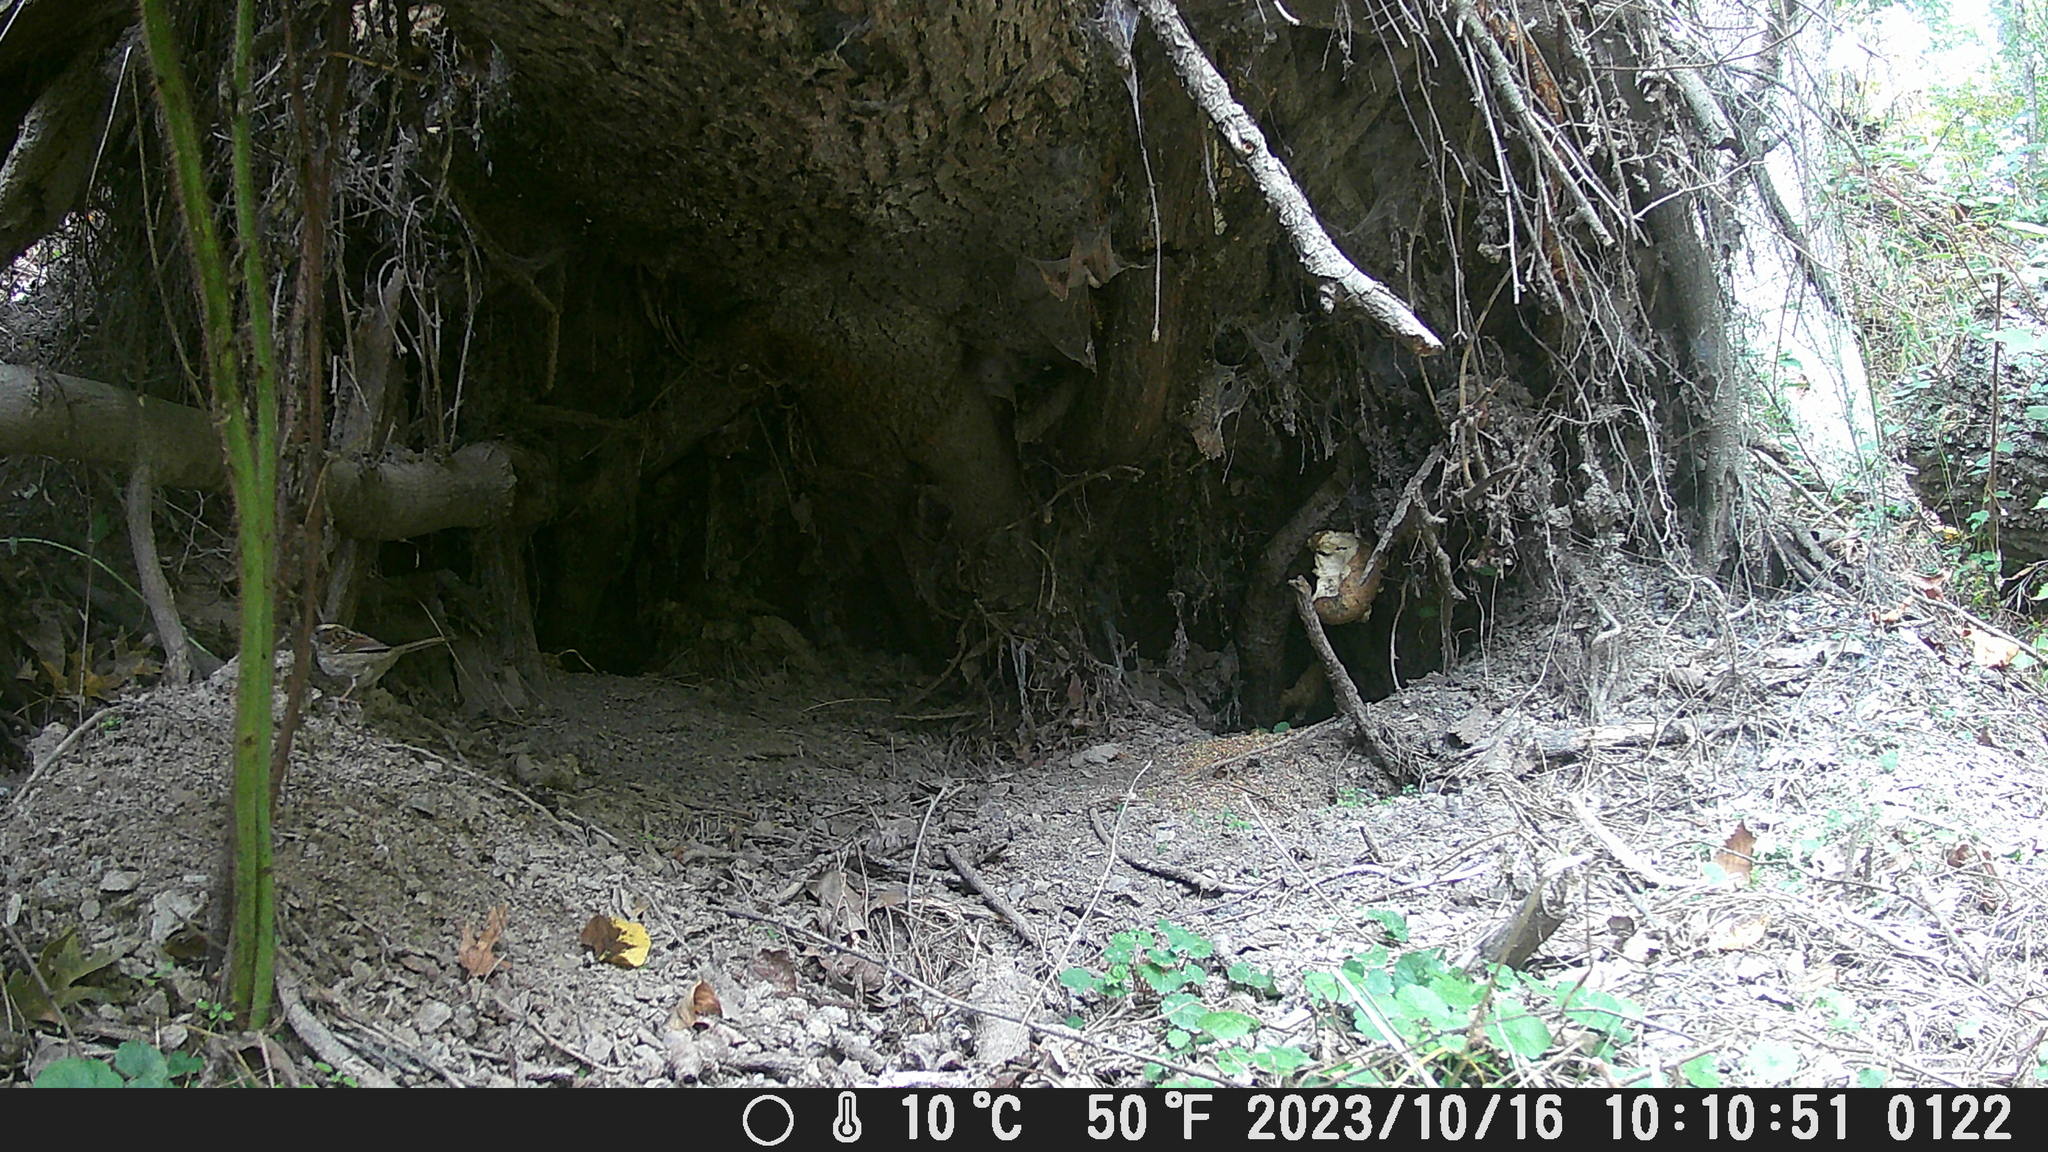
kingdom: Animalia
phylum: Chordata
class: Aves
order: Passeriformes
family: Passerellidae
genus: Zonotrichia
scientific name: Zonotrichia leucophrys
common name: White-crowned sparrow
